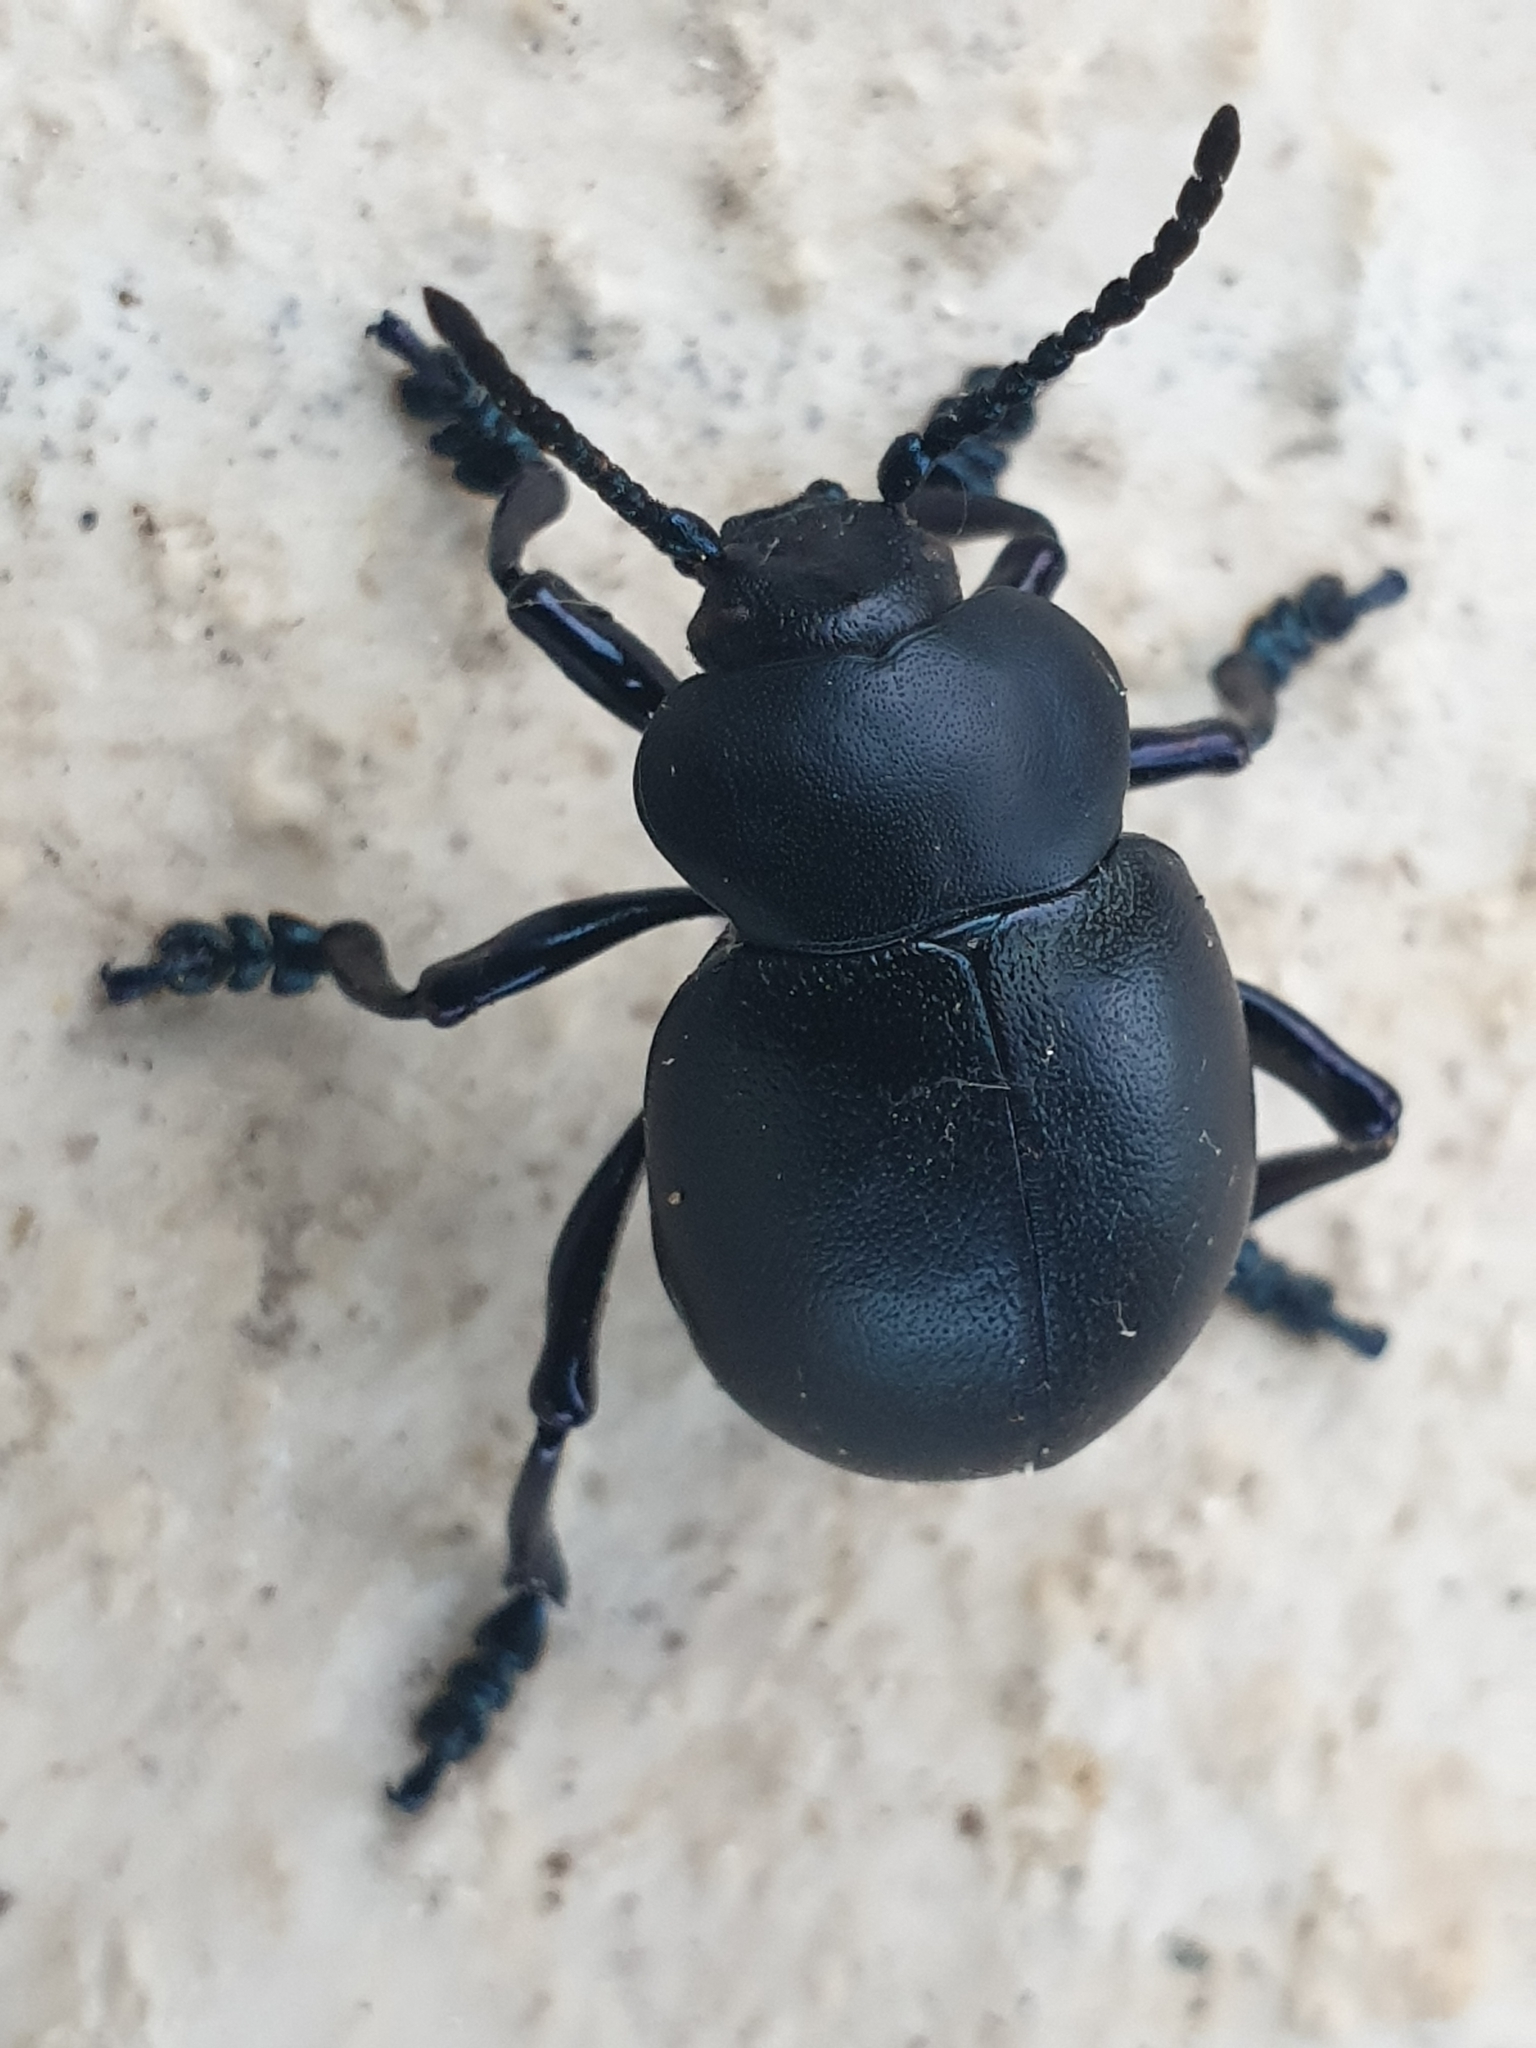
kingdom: Animalia
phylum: Arthropoda
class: Insecta
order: Coleoptera
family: Chrysomelidae
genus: Timarcha
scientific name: Timarcha tenebricosa
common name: Bloody-nosed beetle
